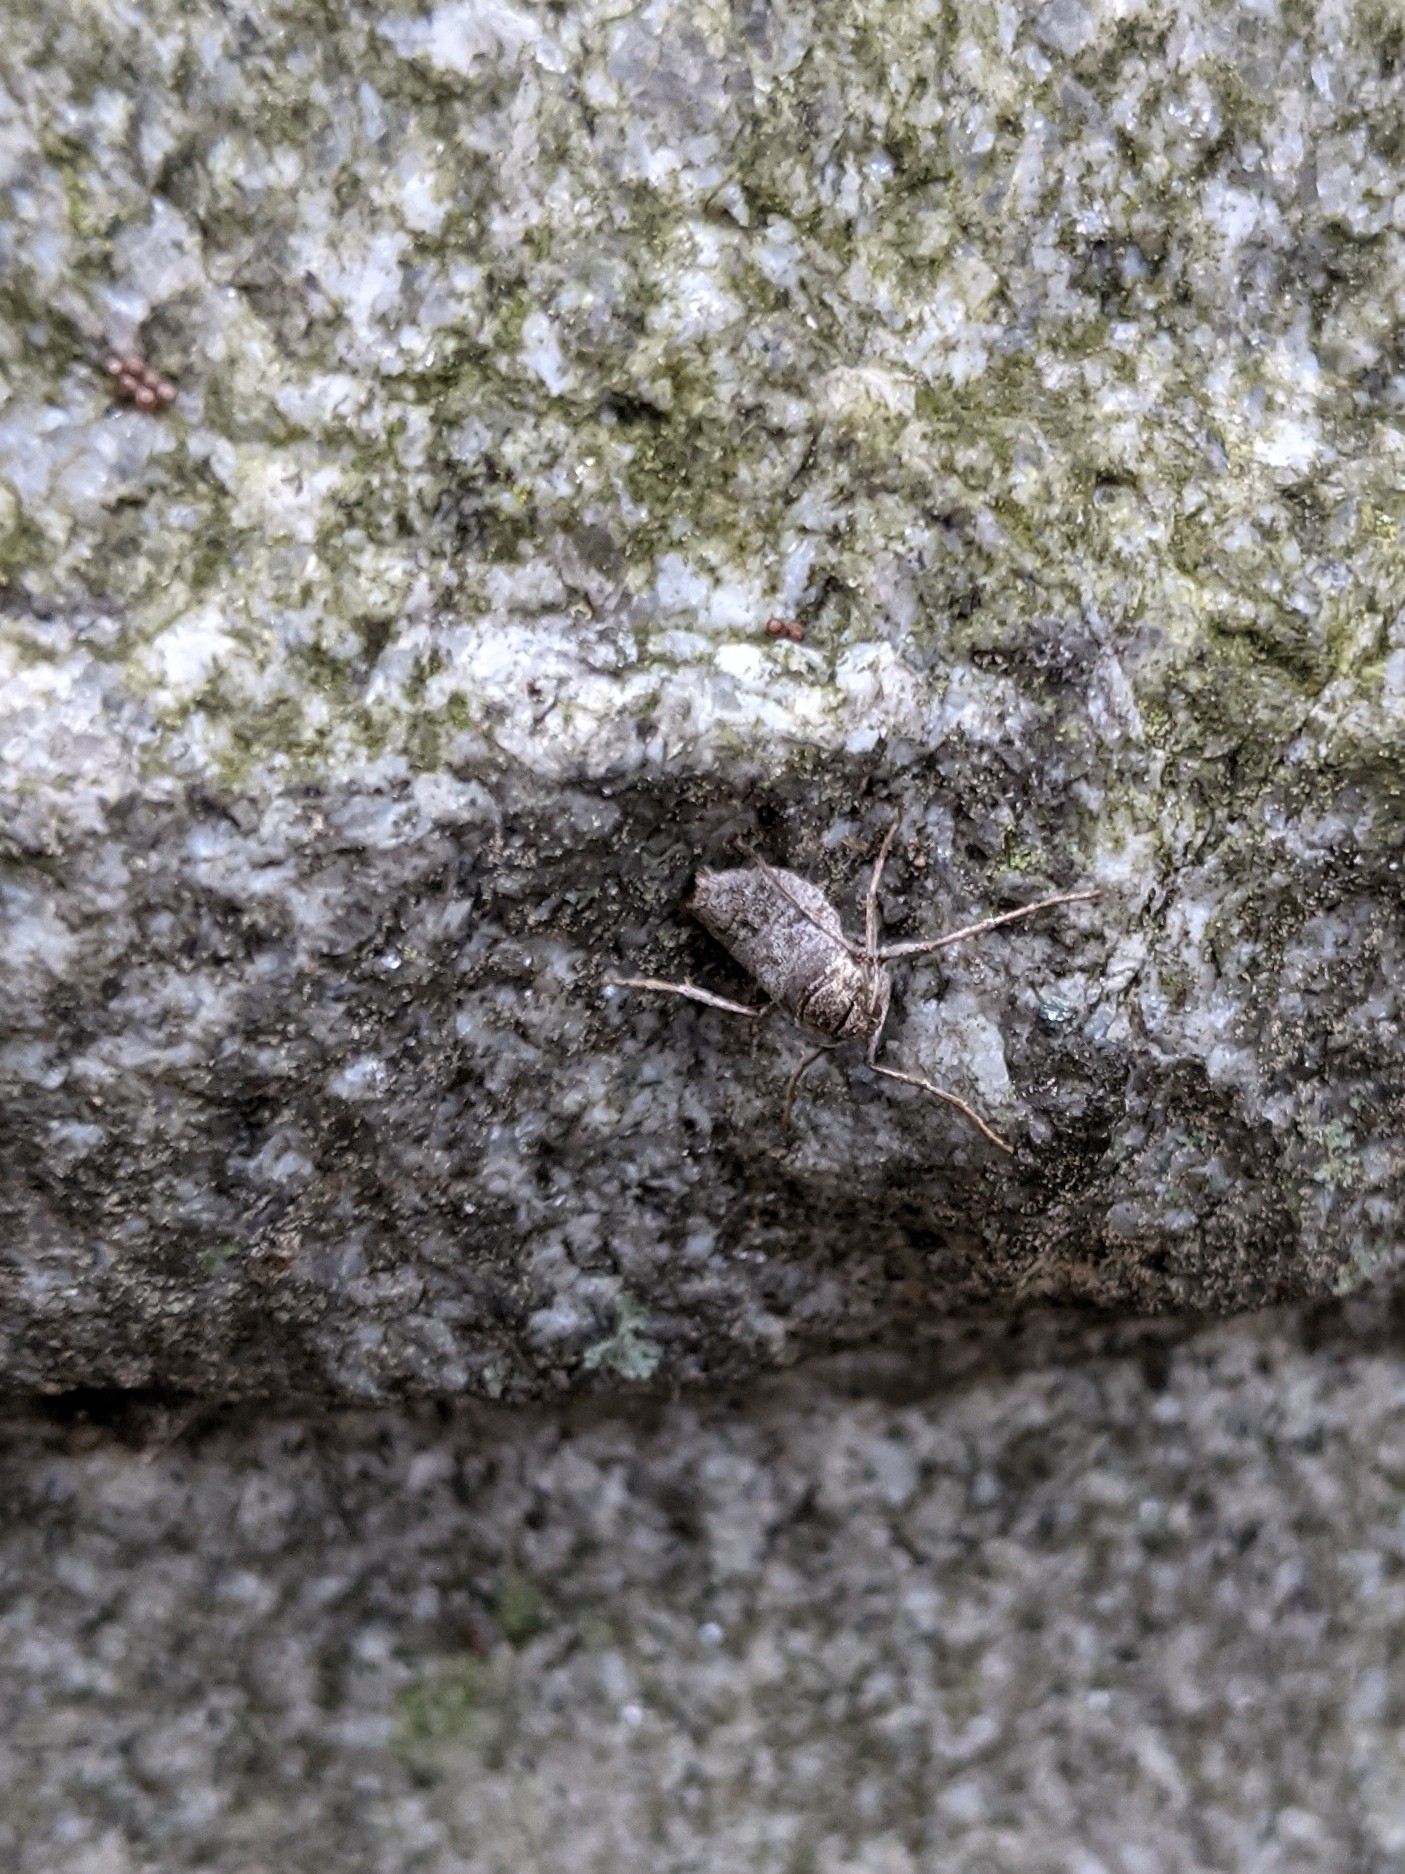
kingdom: Animalia
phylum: Arthropoda
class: Insecta
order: Lepidoptera
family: Geometridae
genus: Alsophila
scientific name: Alsophila pometaria
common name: Fall cankerworm
